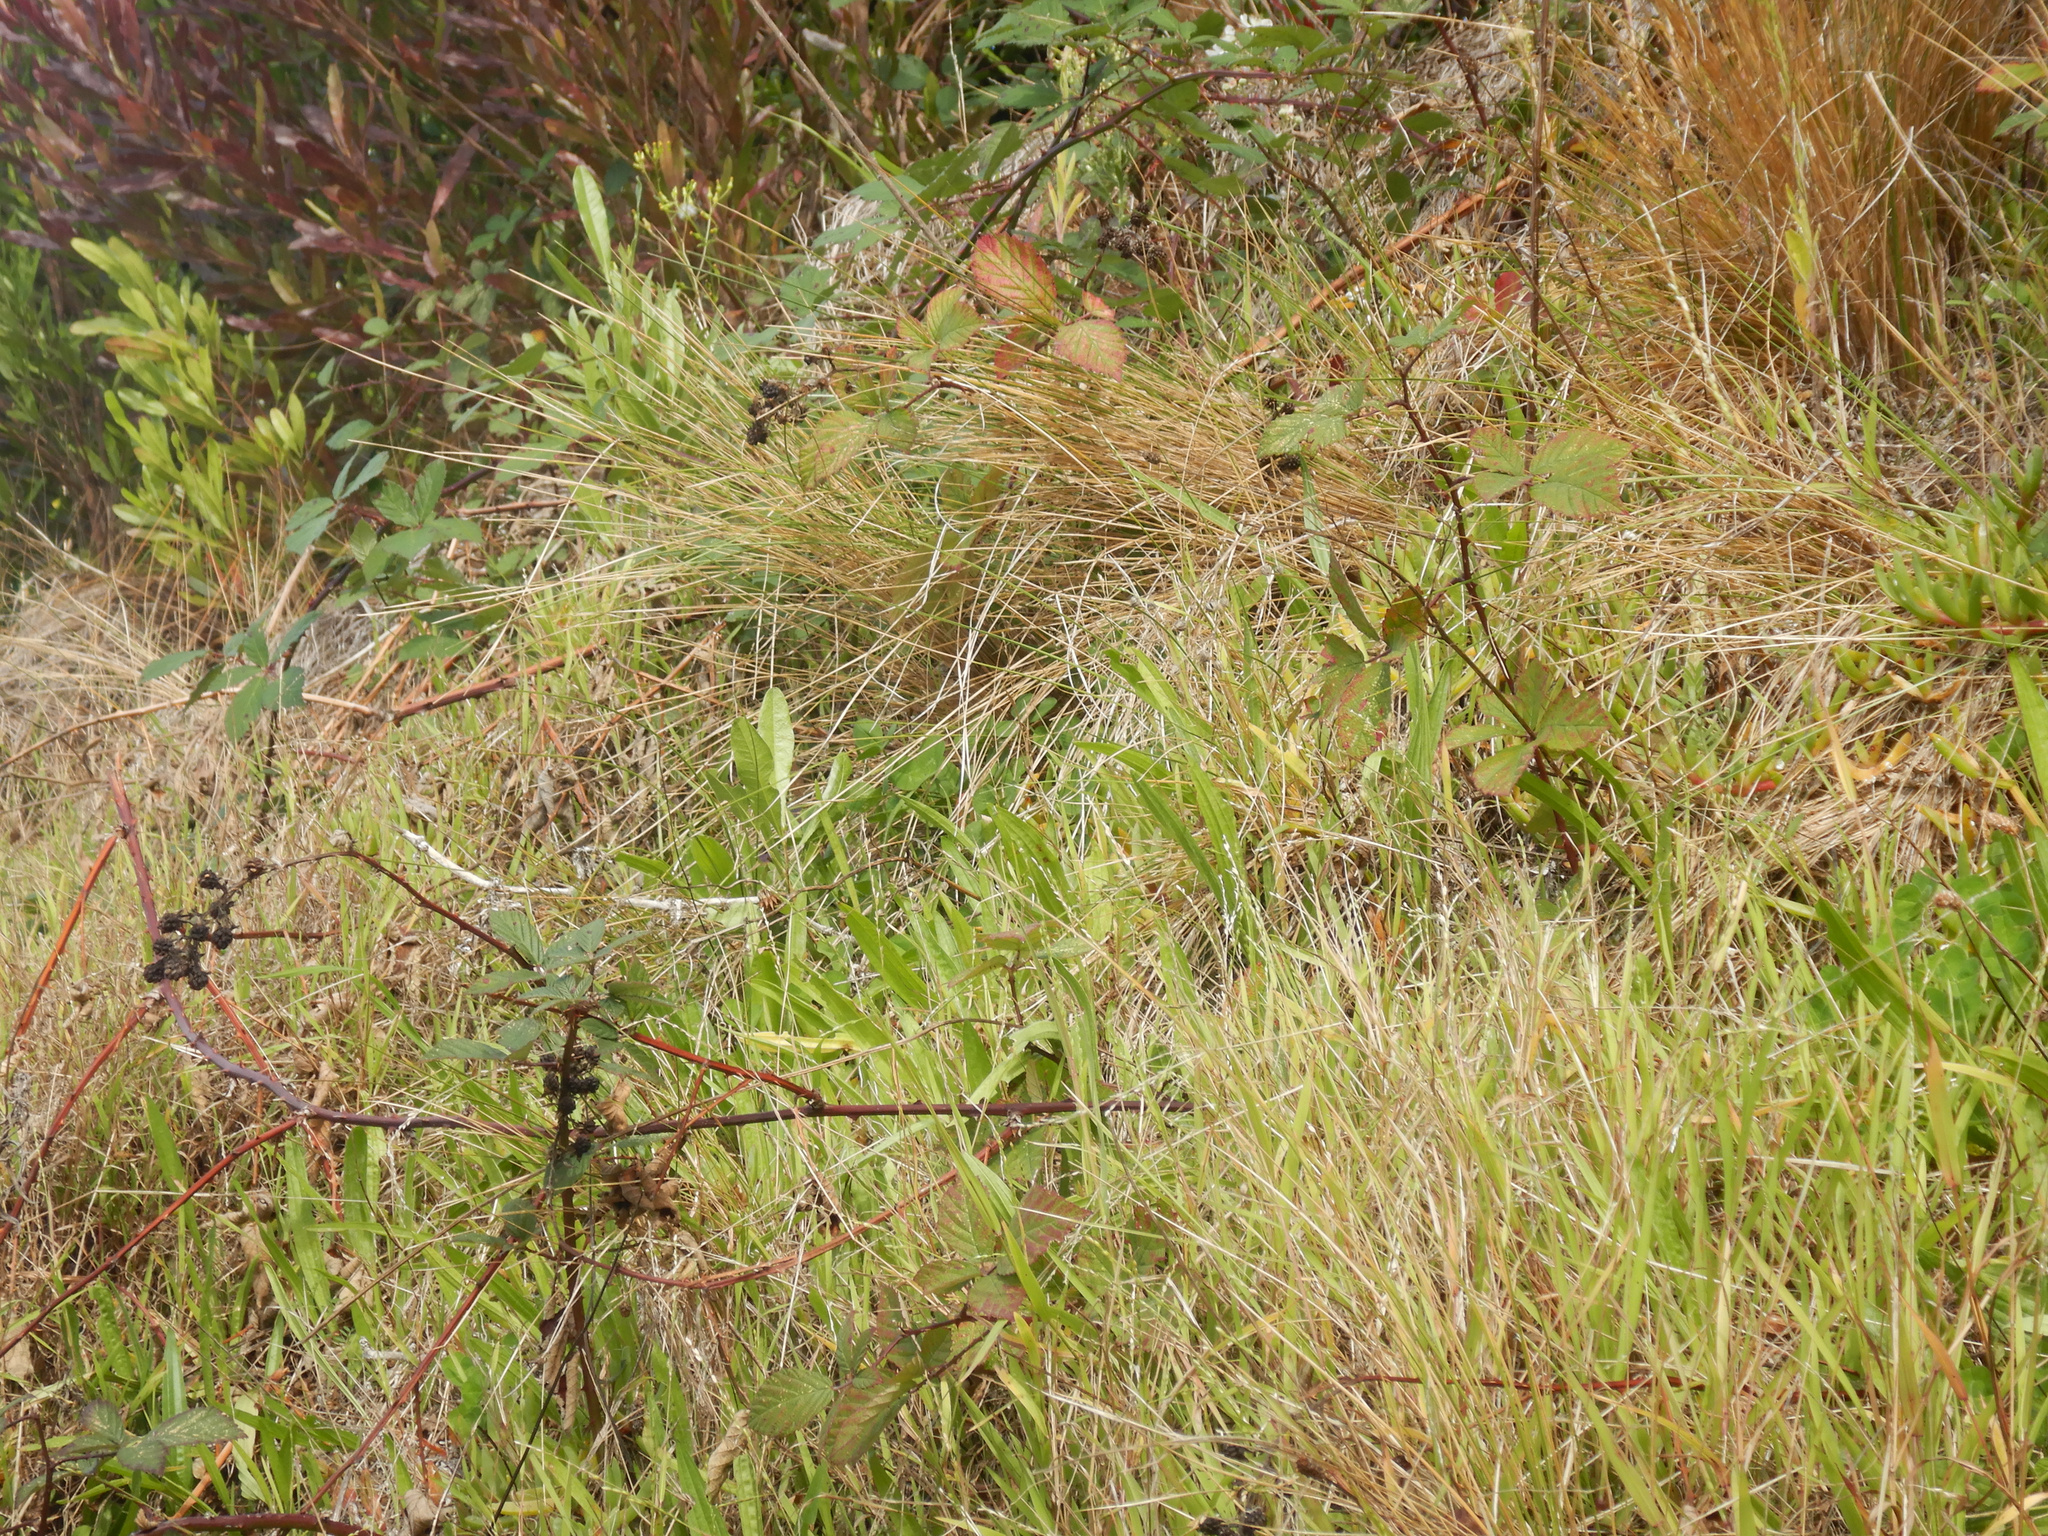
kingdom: Plantae
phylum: Tracheophyta
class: Magnoliopsida
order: Sapindales
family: Sapindaceae
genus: Dodonaea
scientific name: Dodonaea viscosa
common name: Hopbush
